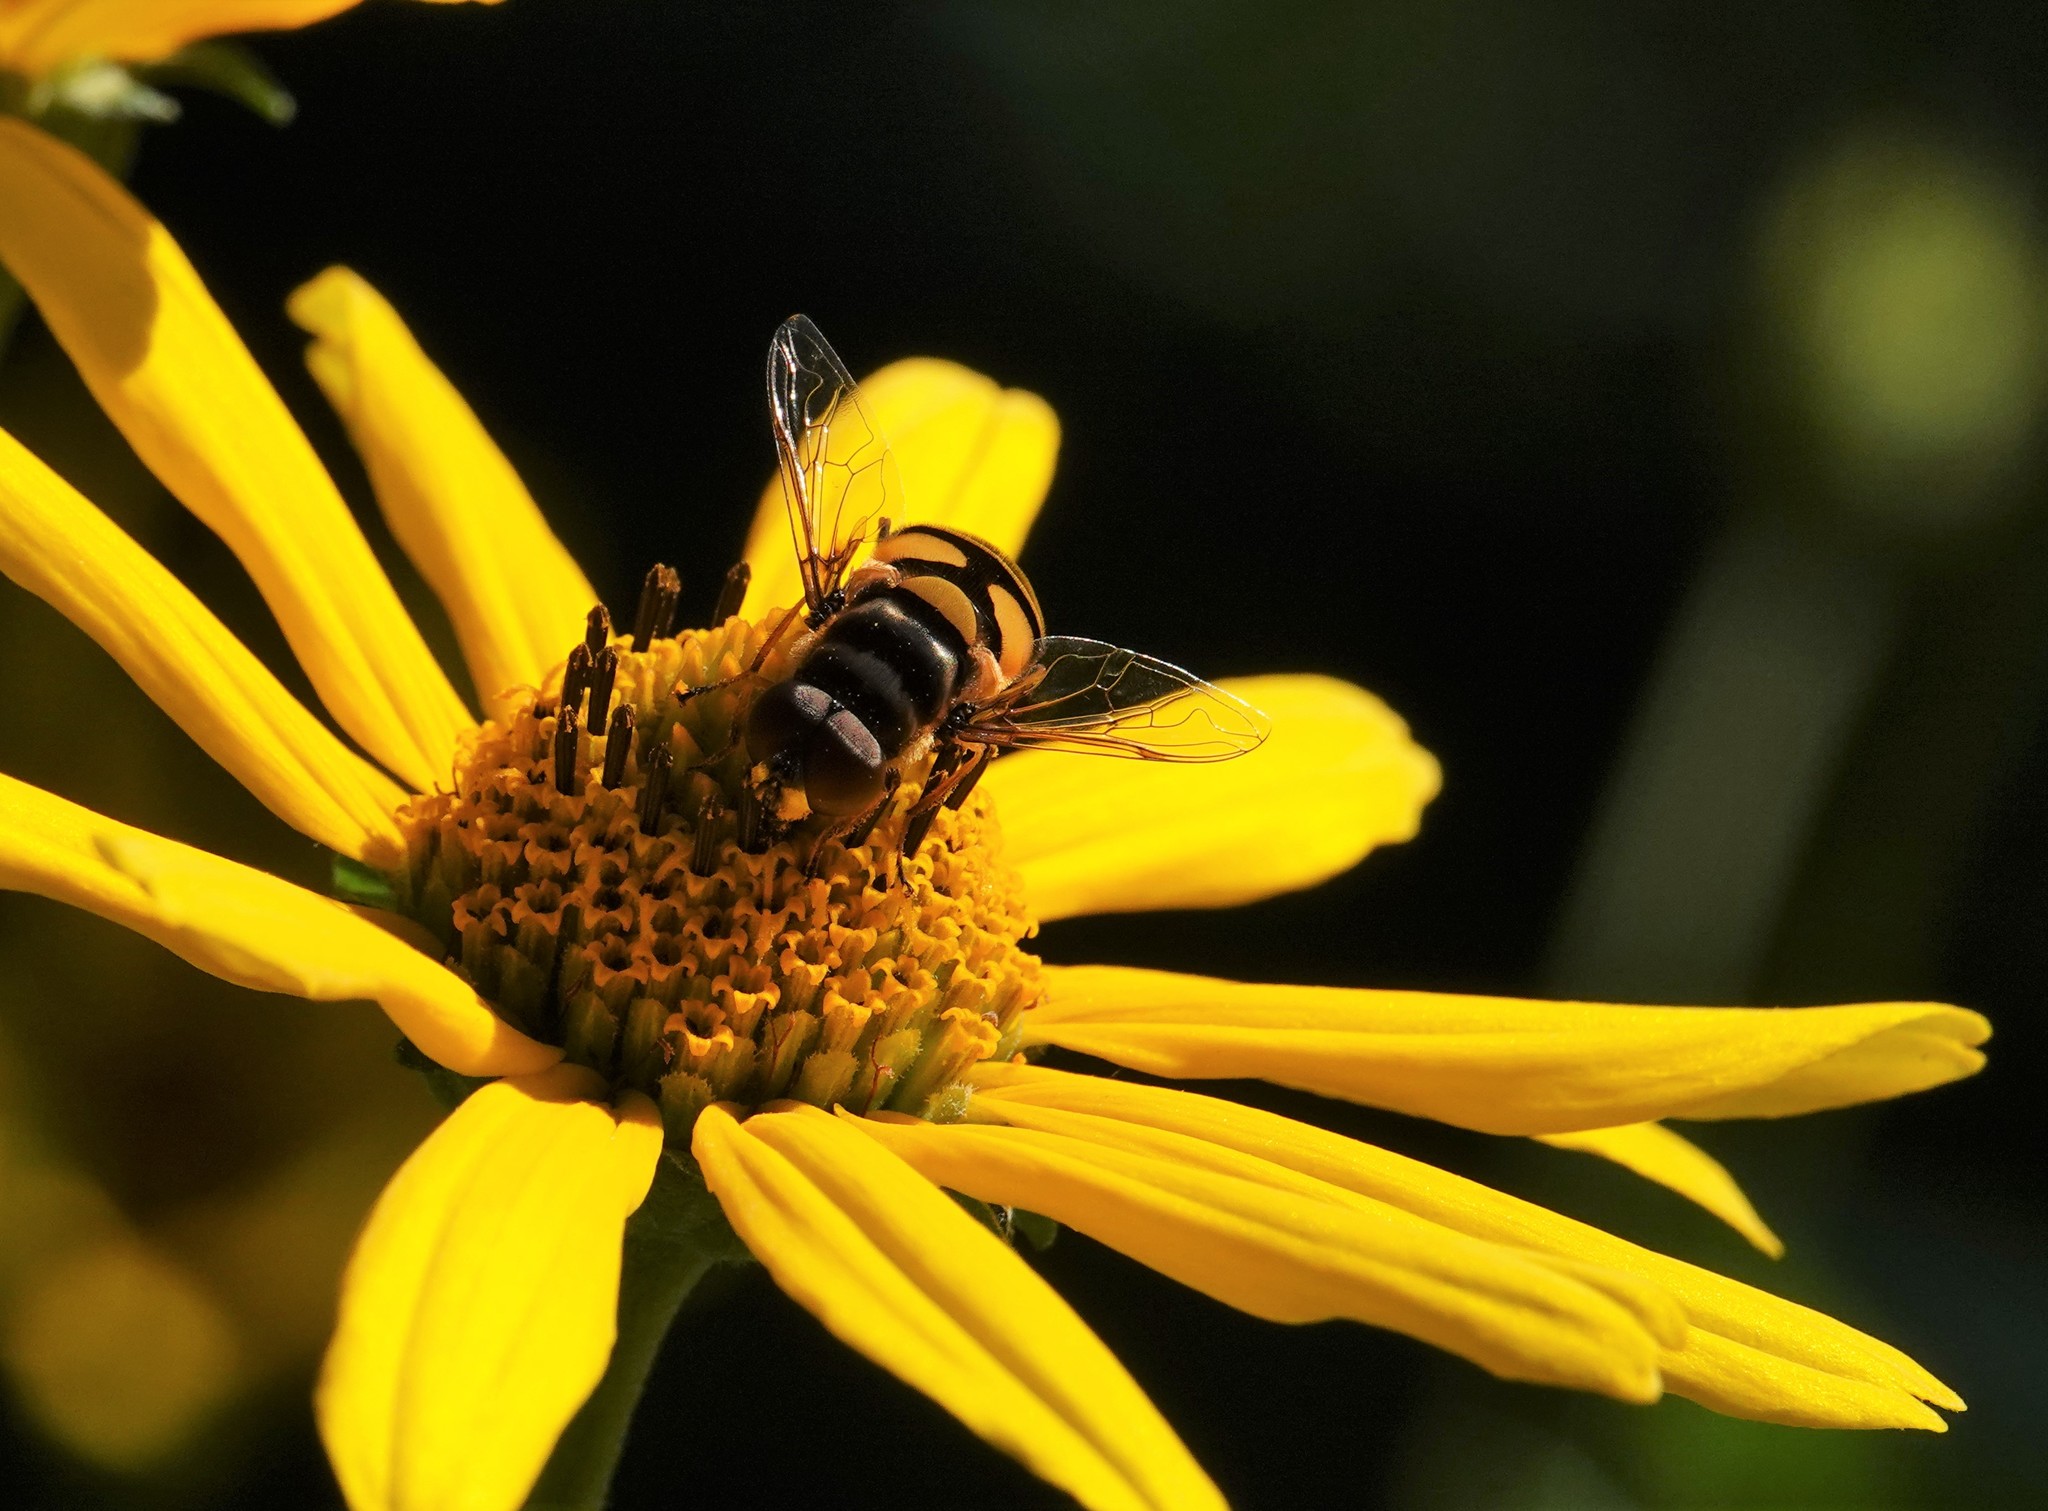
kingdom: Animalia
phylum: Arthropoda
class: Insecta
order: Diptera
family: Syrphidae
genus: Eristalis
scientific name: Eristalis transversa
